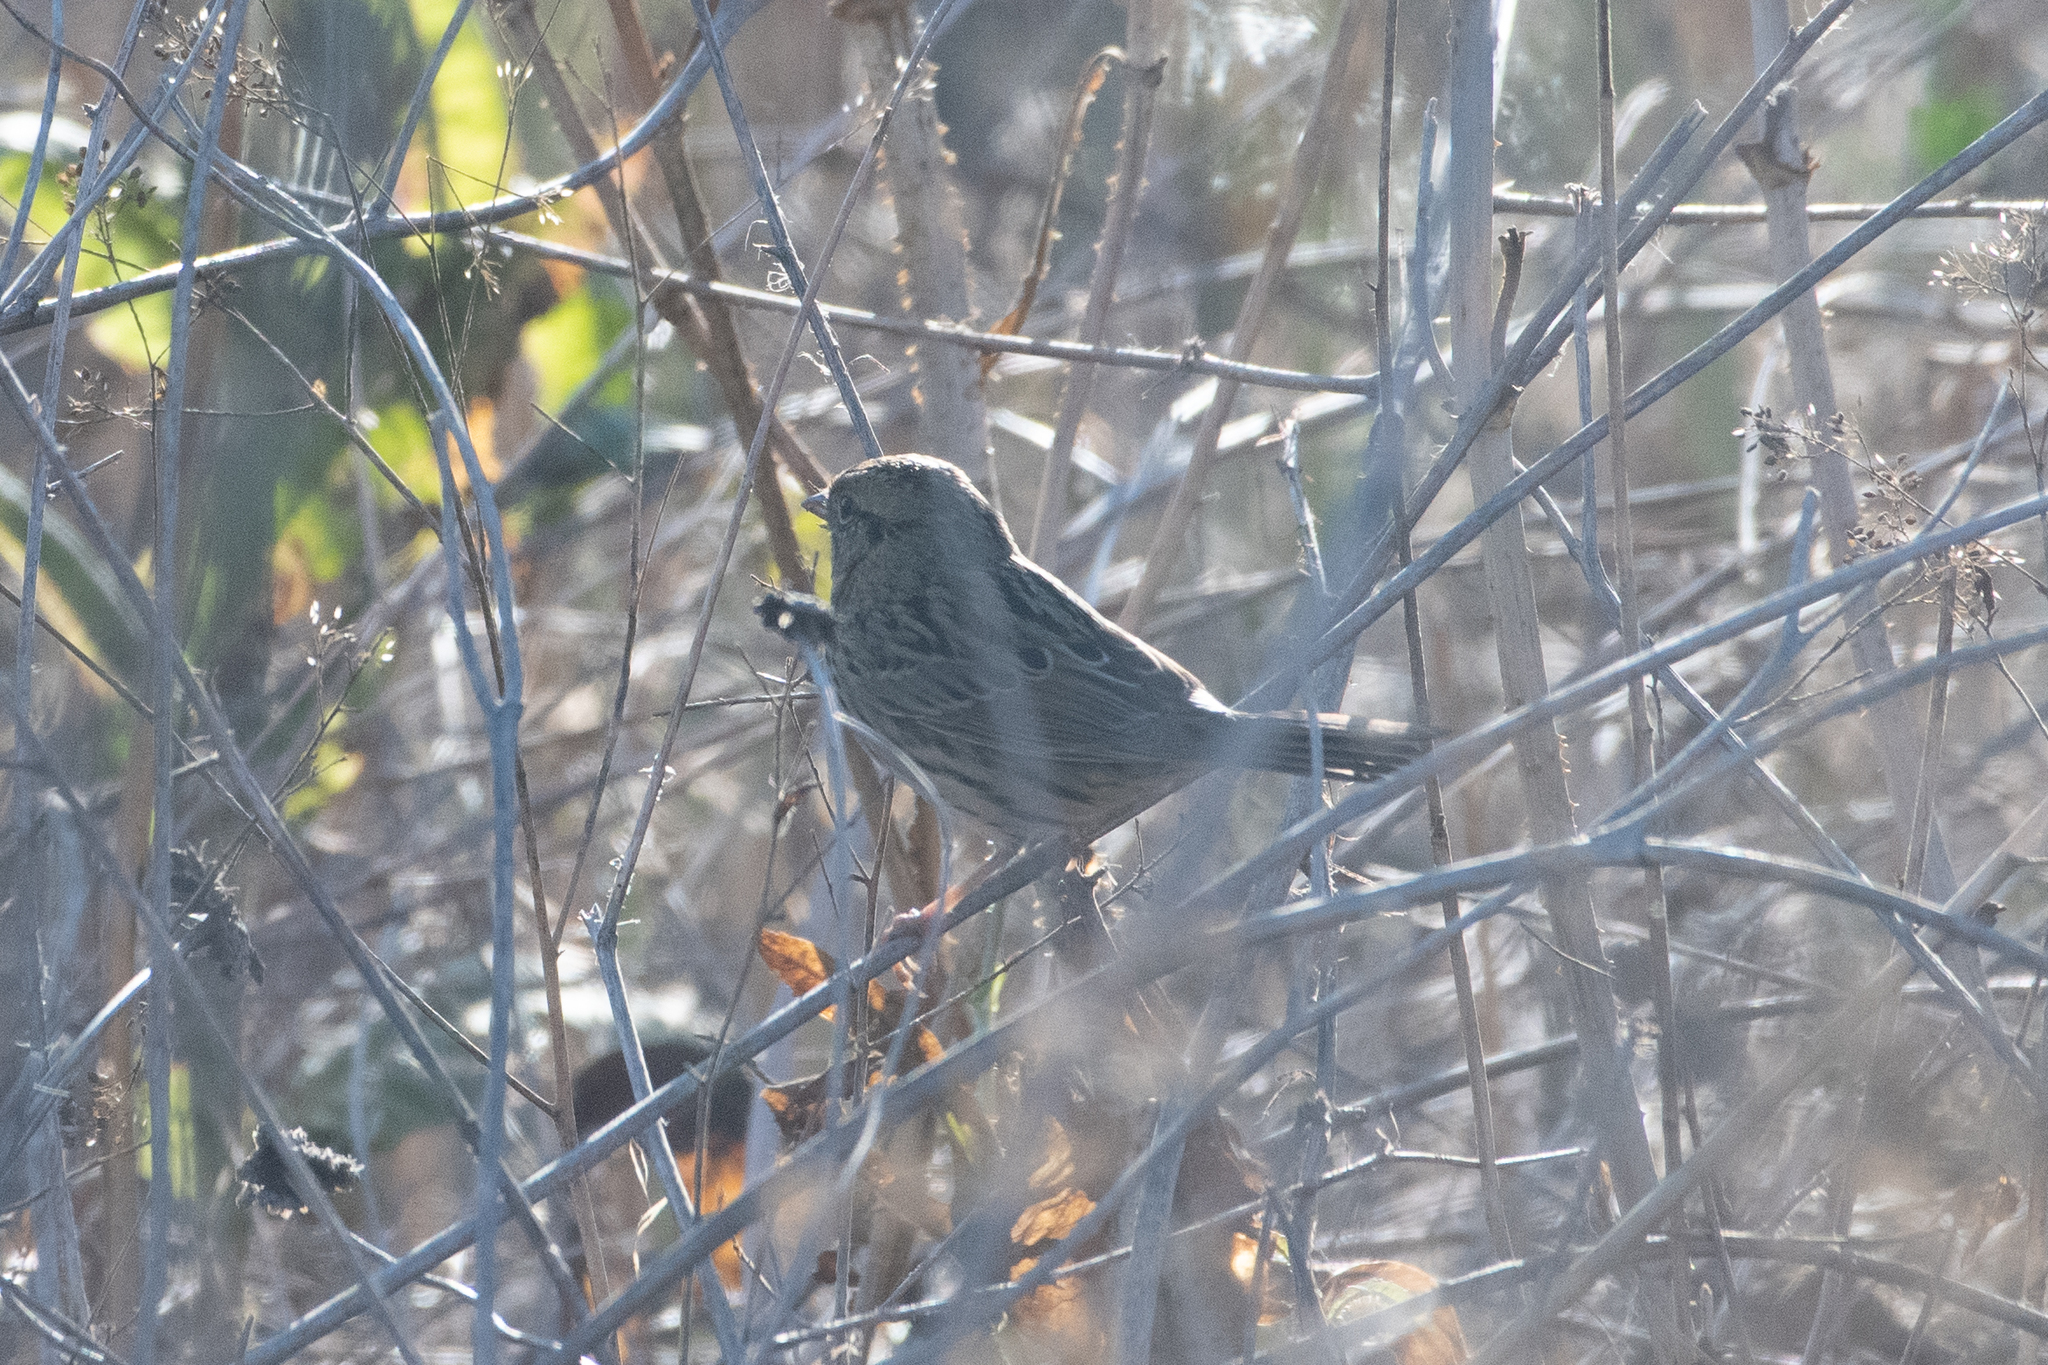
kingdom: Animalia
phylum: Chordata
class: Aves
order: Passeriformes
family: Passerellidae
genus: Melospiza
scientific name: Melospiza lincolnii
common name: Lincoln's sparrow
